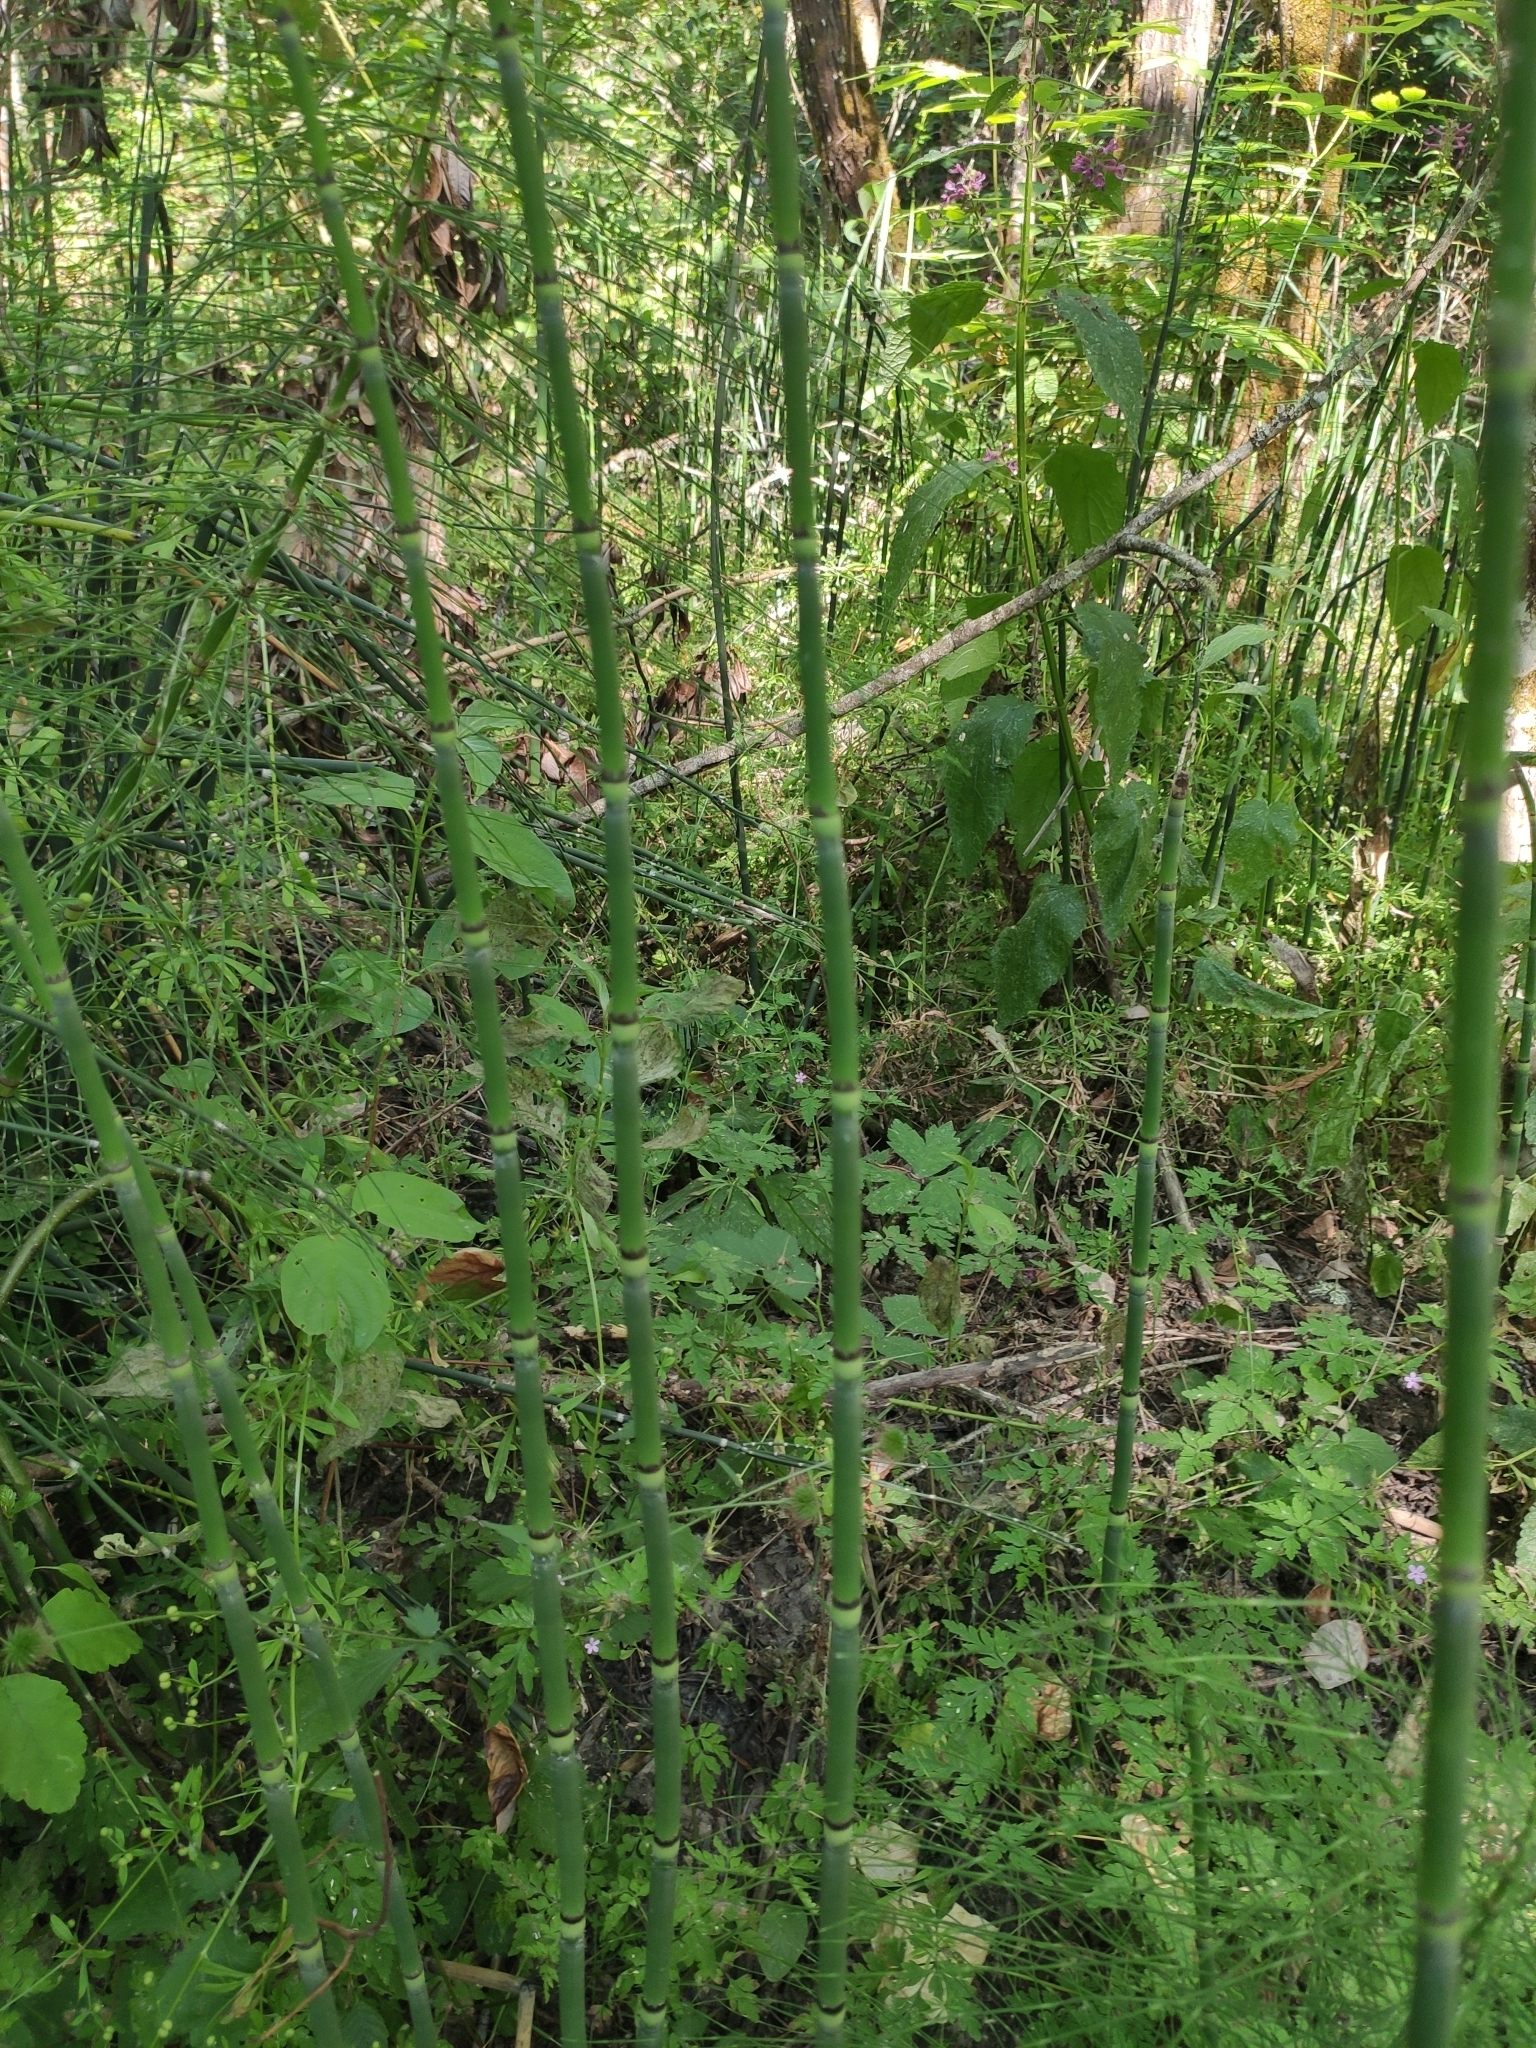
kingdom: Plantae
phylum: Tracheophyta
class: Polypodiopsida
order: Equisetales
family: Equisetaceae
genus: Equisetum
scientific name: Equisetum praealtum
